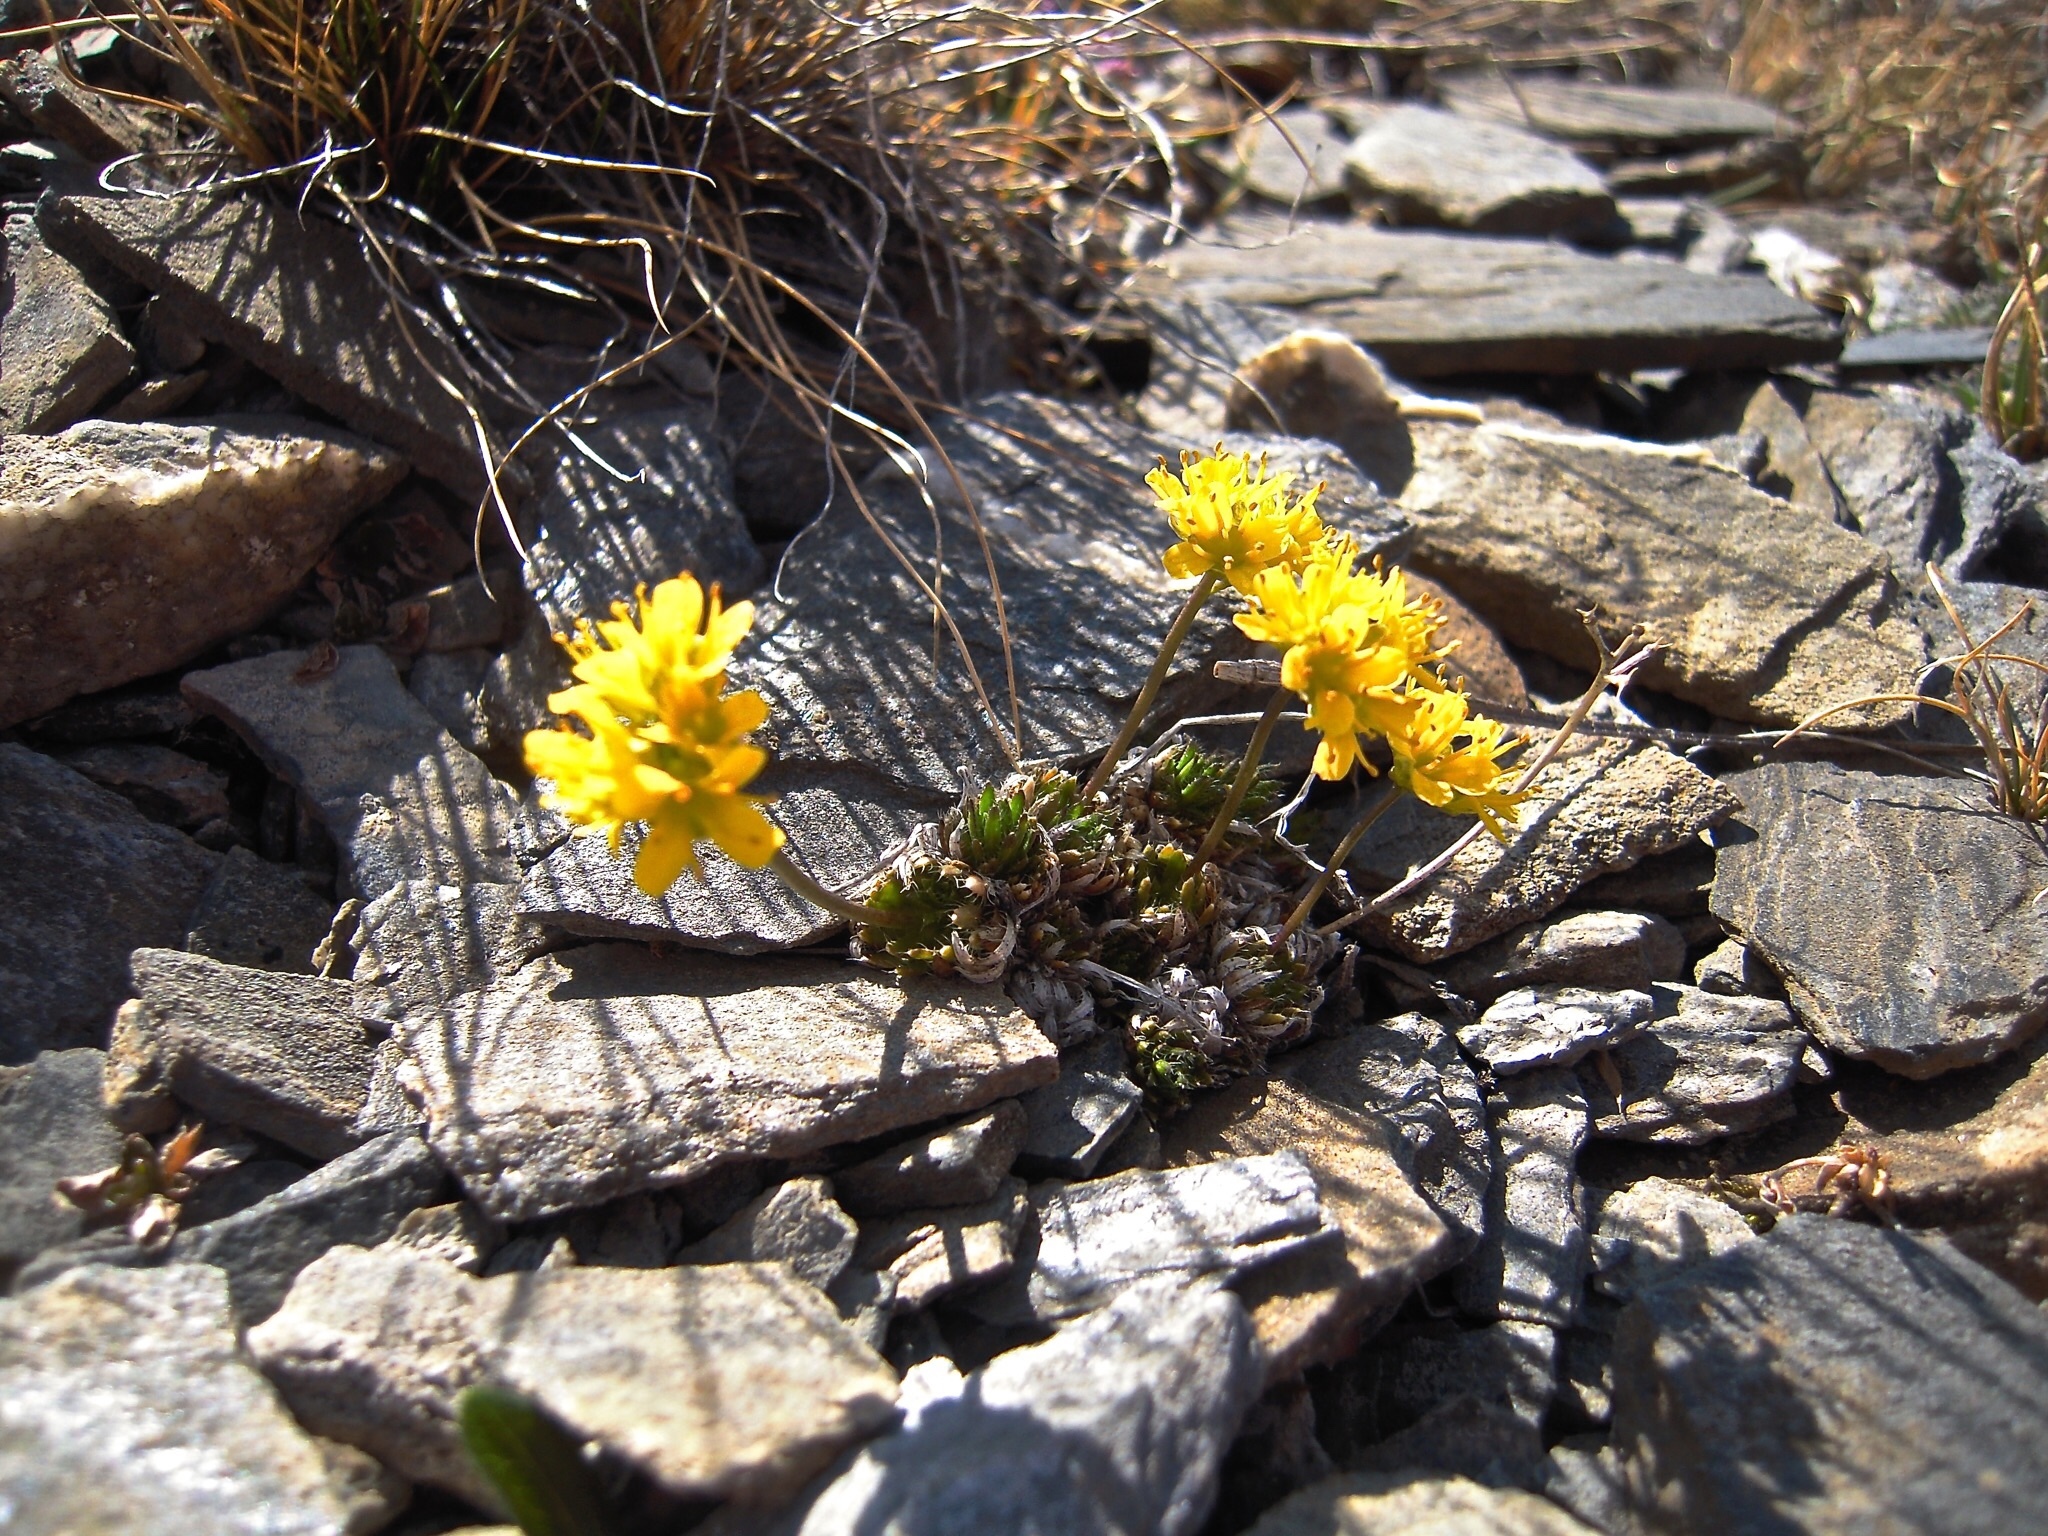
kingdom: Plantae
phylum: Tracheophyta
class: Magnoliopsida
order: Brassicales
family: Brassicaceae
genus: Draba
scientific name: Draba aizoides
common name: Yellow whitlowgrass
